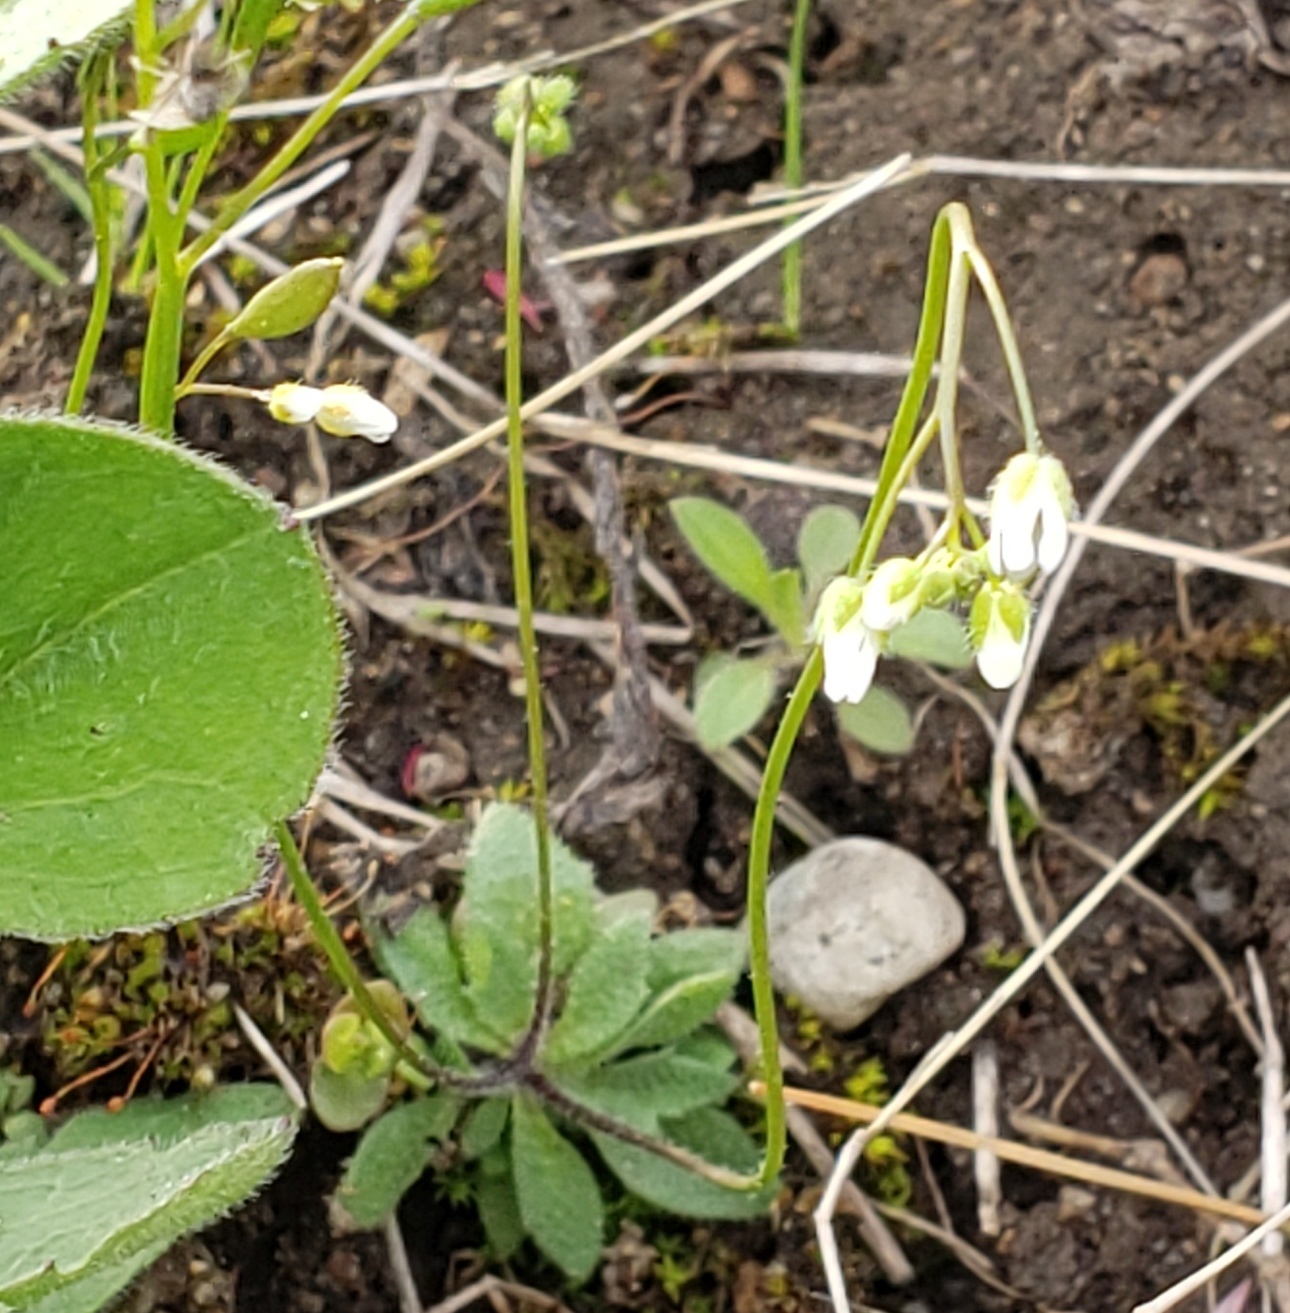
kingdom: Plantae
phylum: Tracheophyta
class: Magnoliopsida
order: Brassicales
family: Brassicaceae
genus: Draba
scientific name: Draba verna
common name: Spring draba
